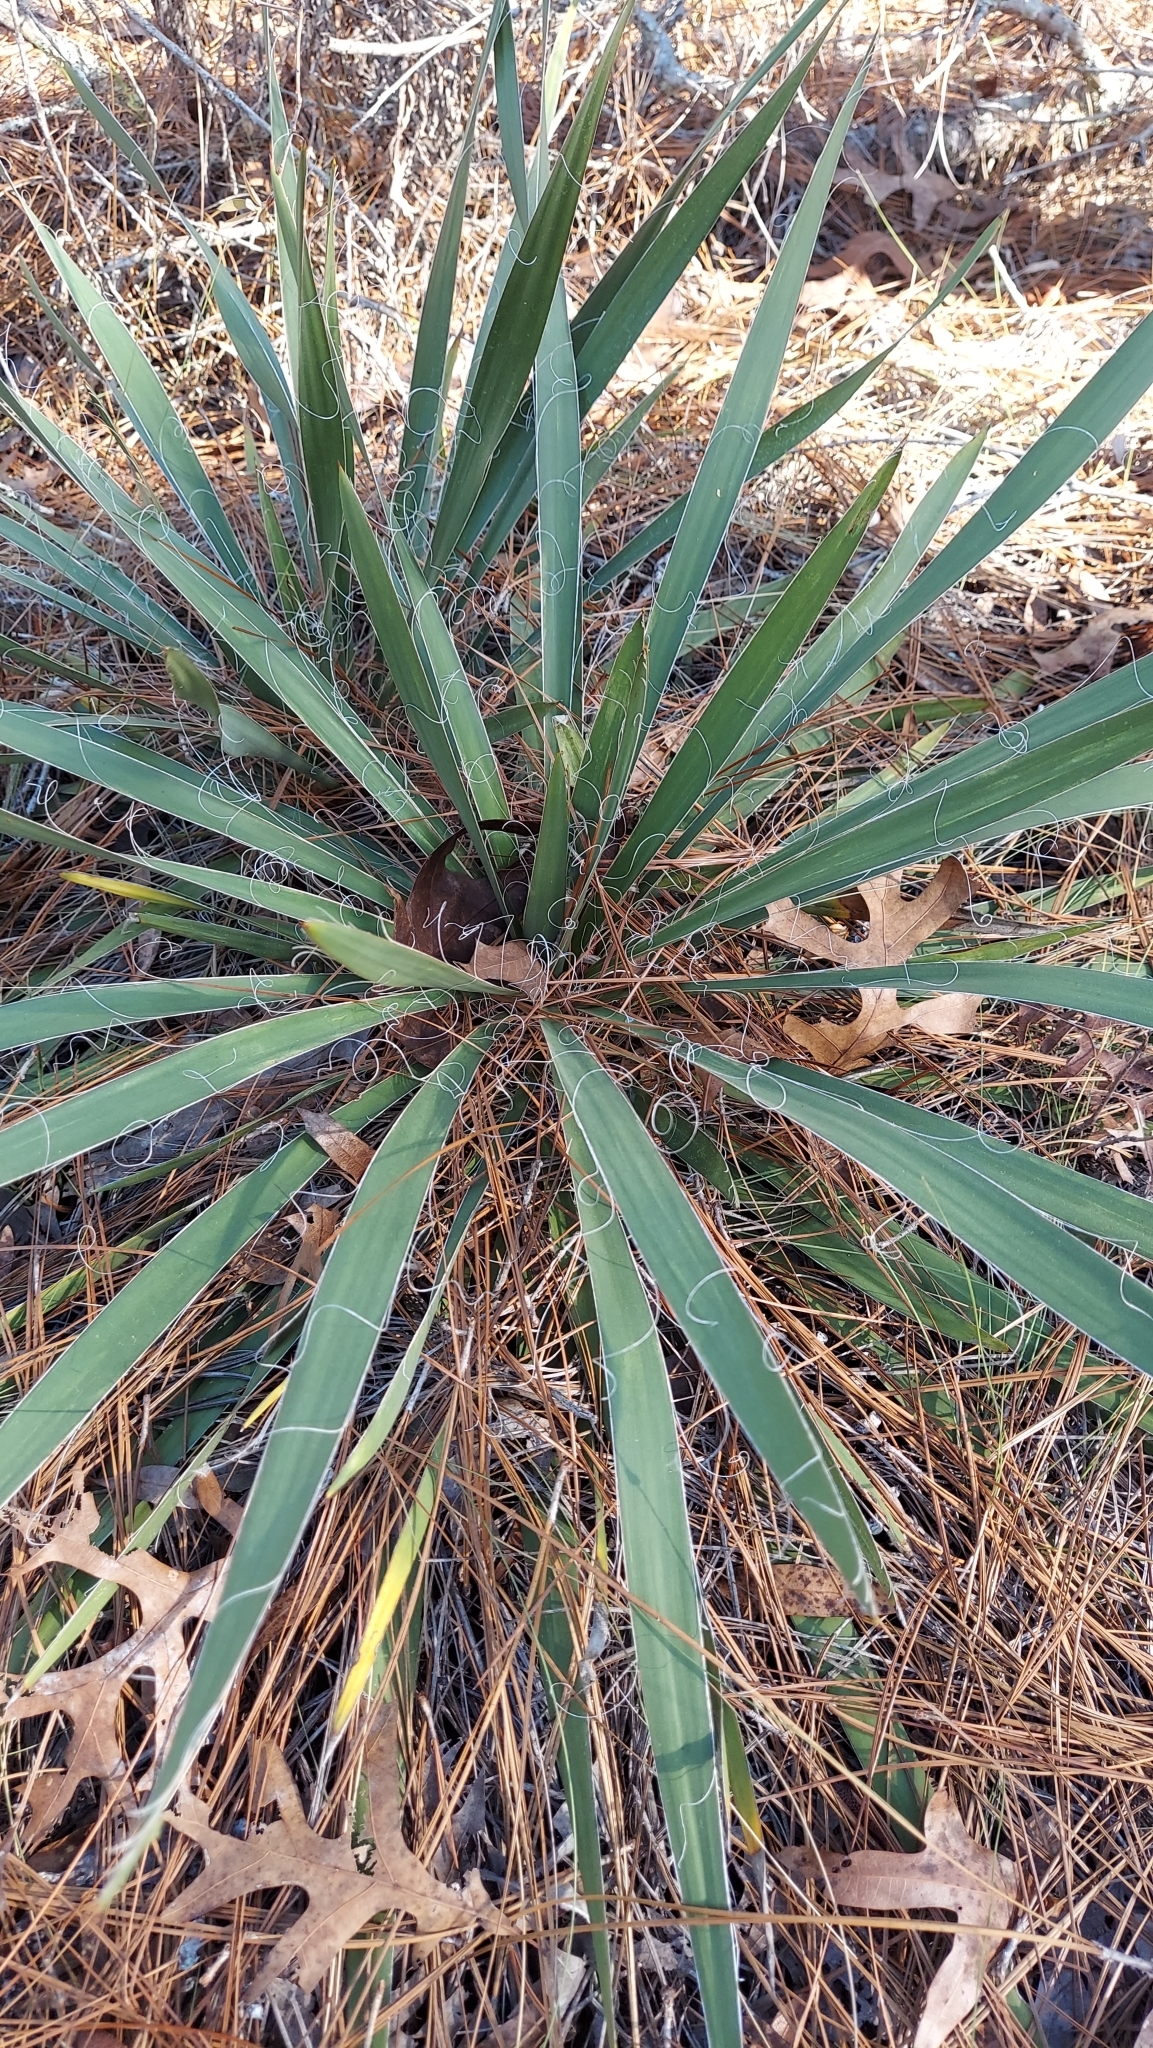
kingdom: Plantae
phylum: Tracheophyta
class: Liliopsida
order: Asparagales
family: Asparagaceae
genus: Yucca
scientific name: Yucca filamentosa
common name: Adam's-needle
